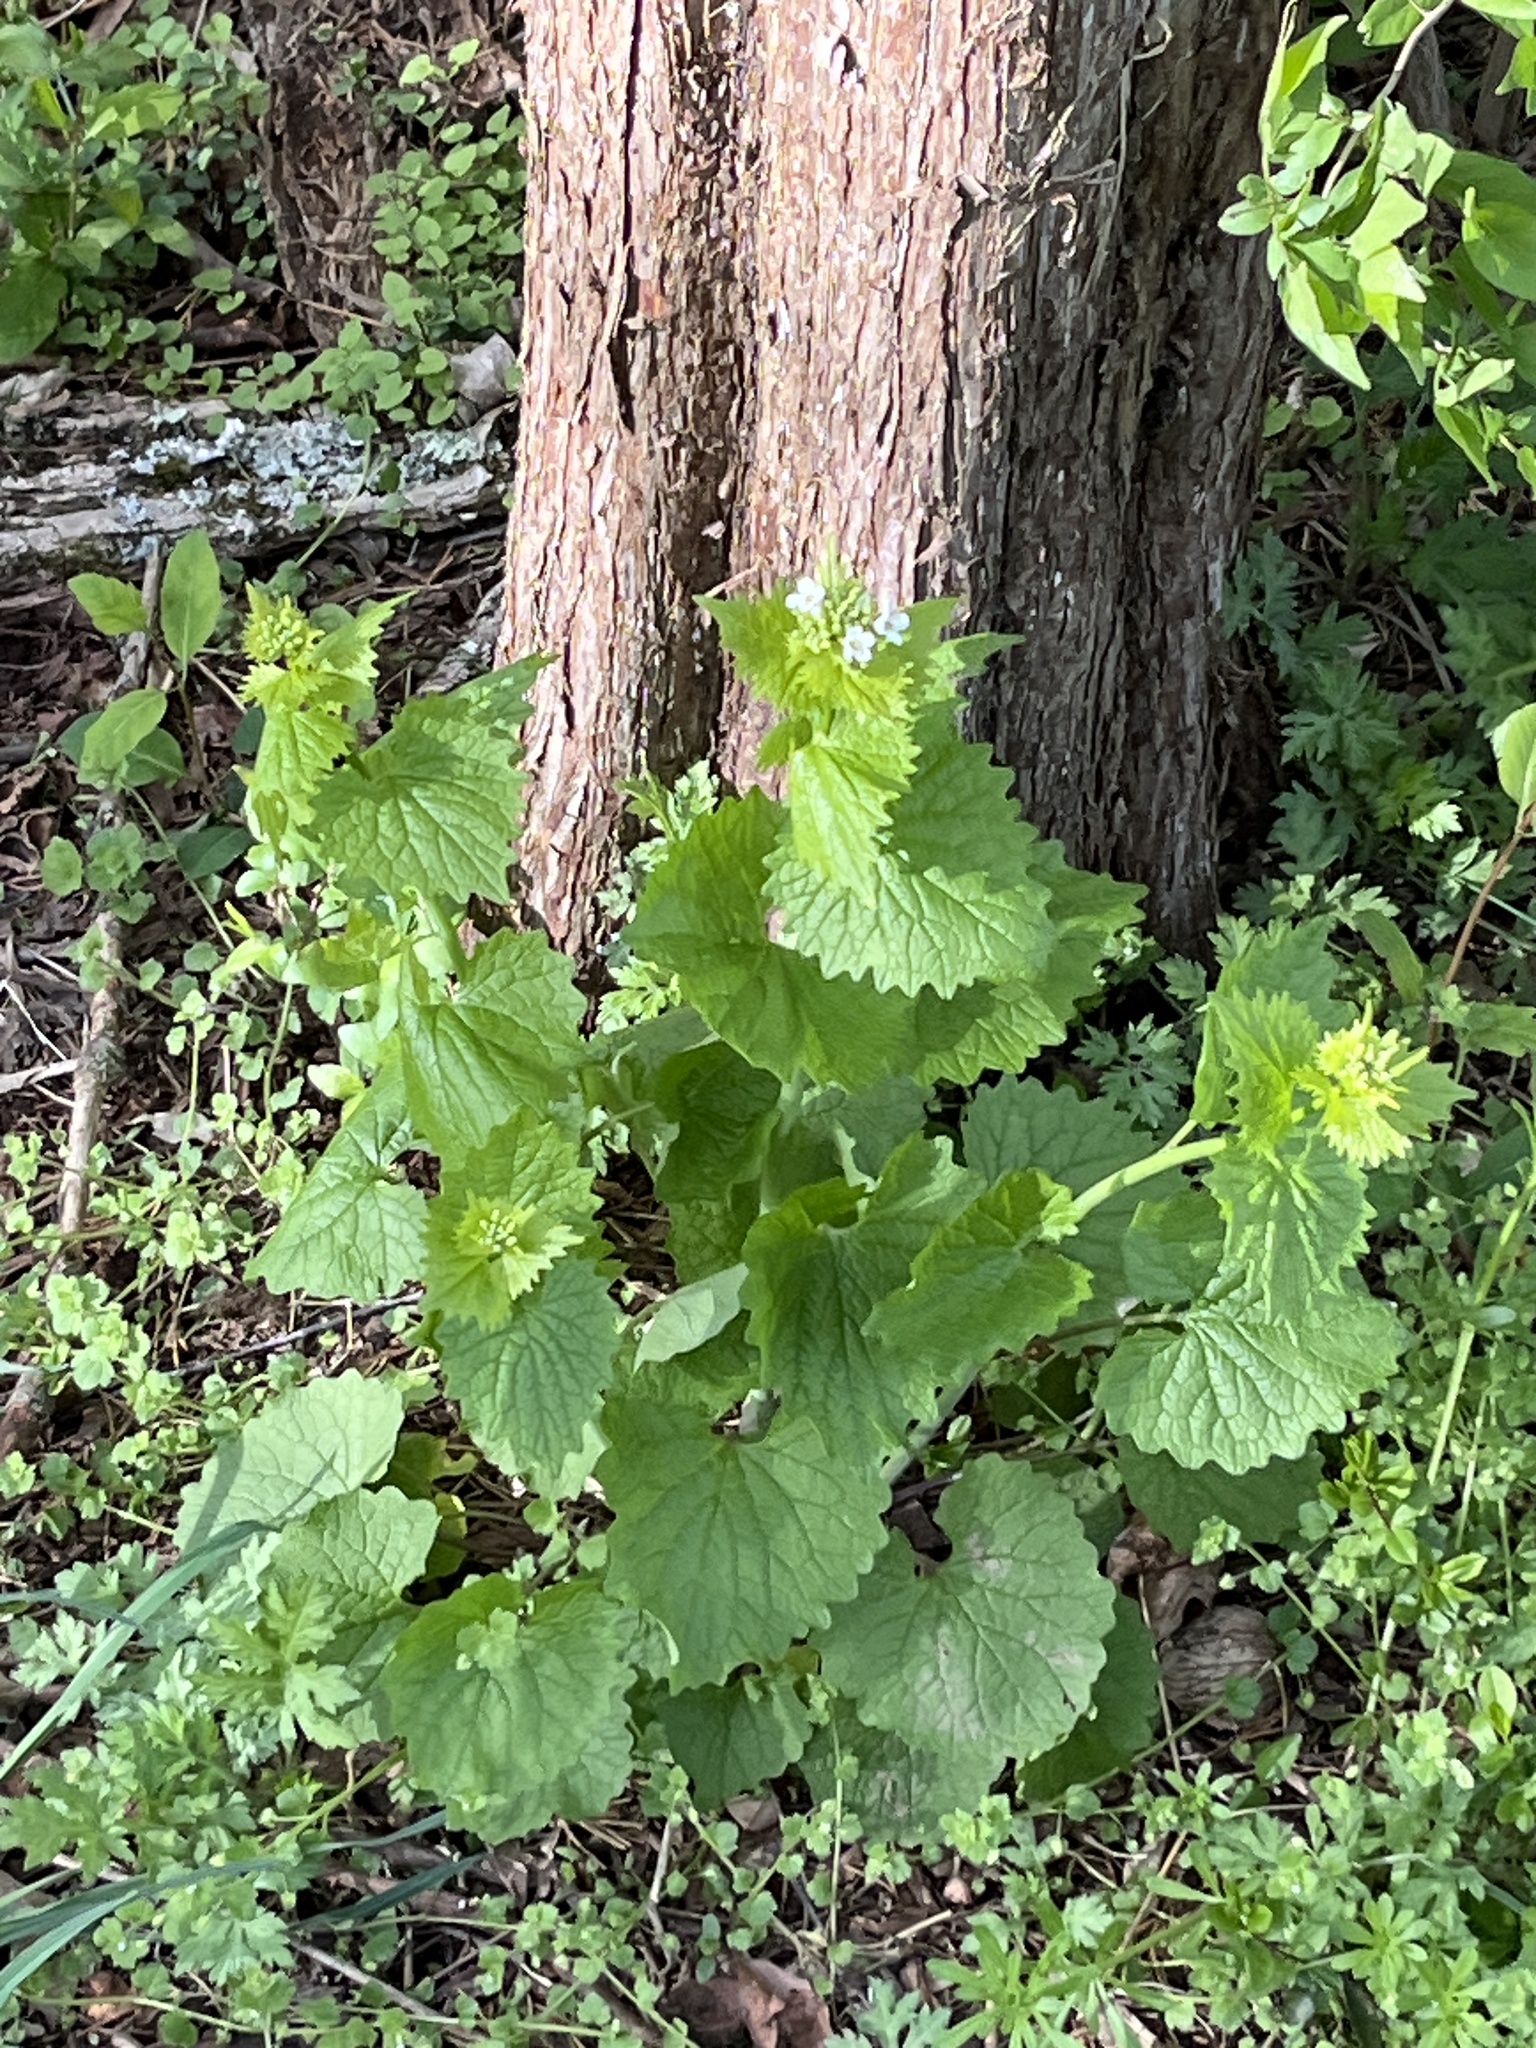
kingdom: Plantae
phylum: Tracheophyta
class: Magnoliopsida
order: Brassicales
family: Brassicaceae
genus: Alliaria
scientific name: Alliaria petiolata
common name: Garlic mustard
